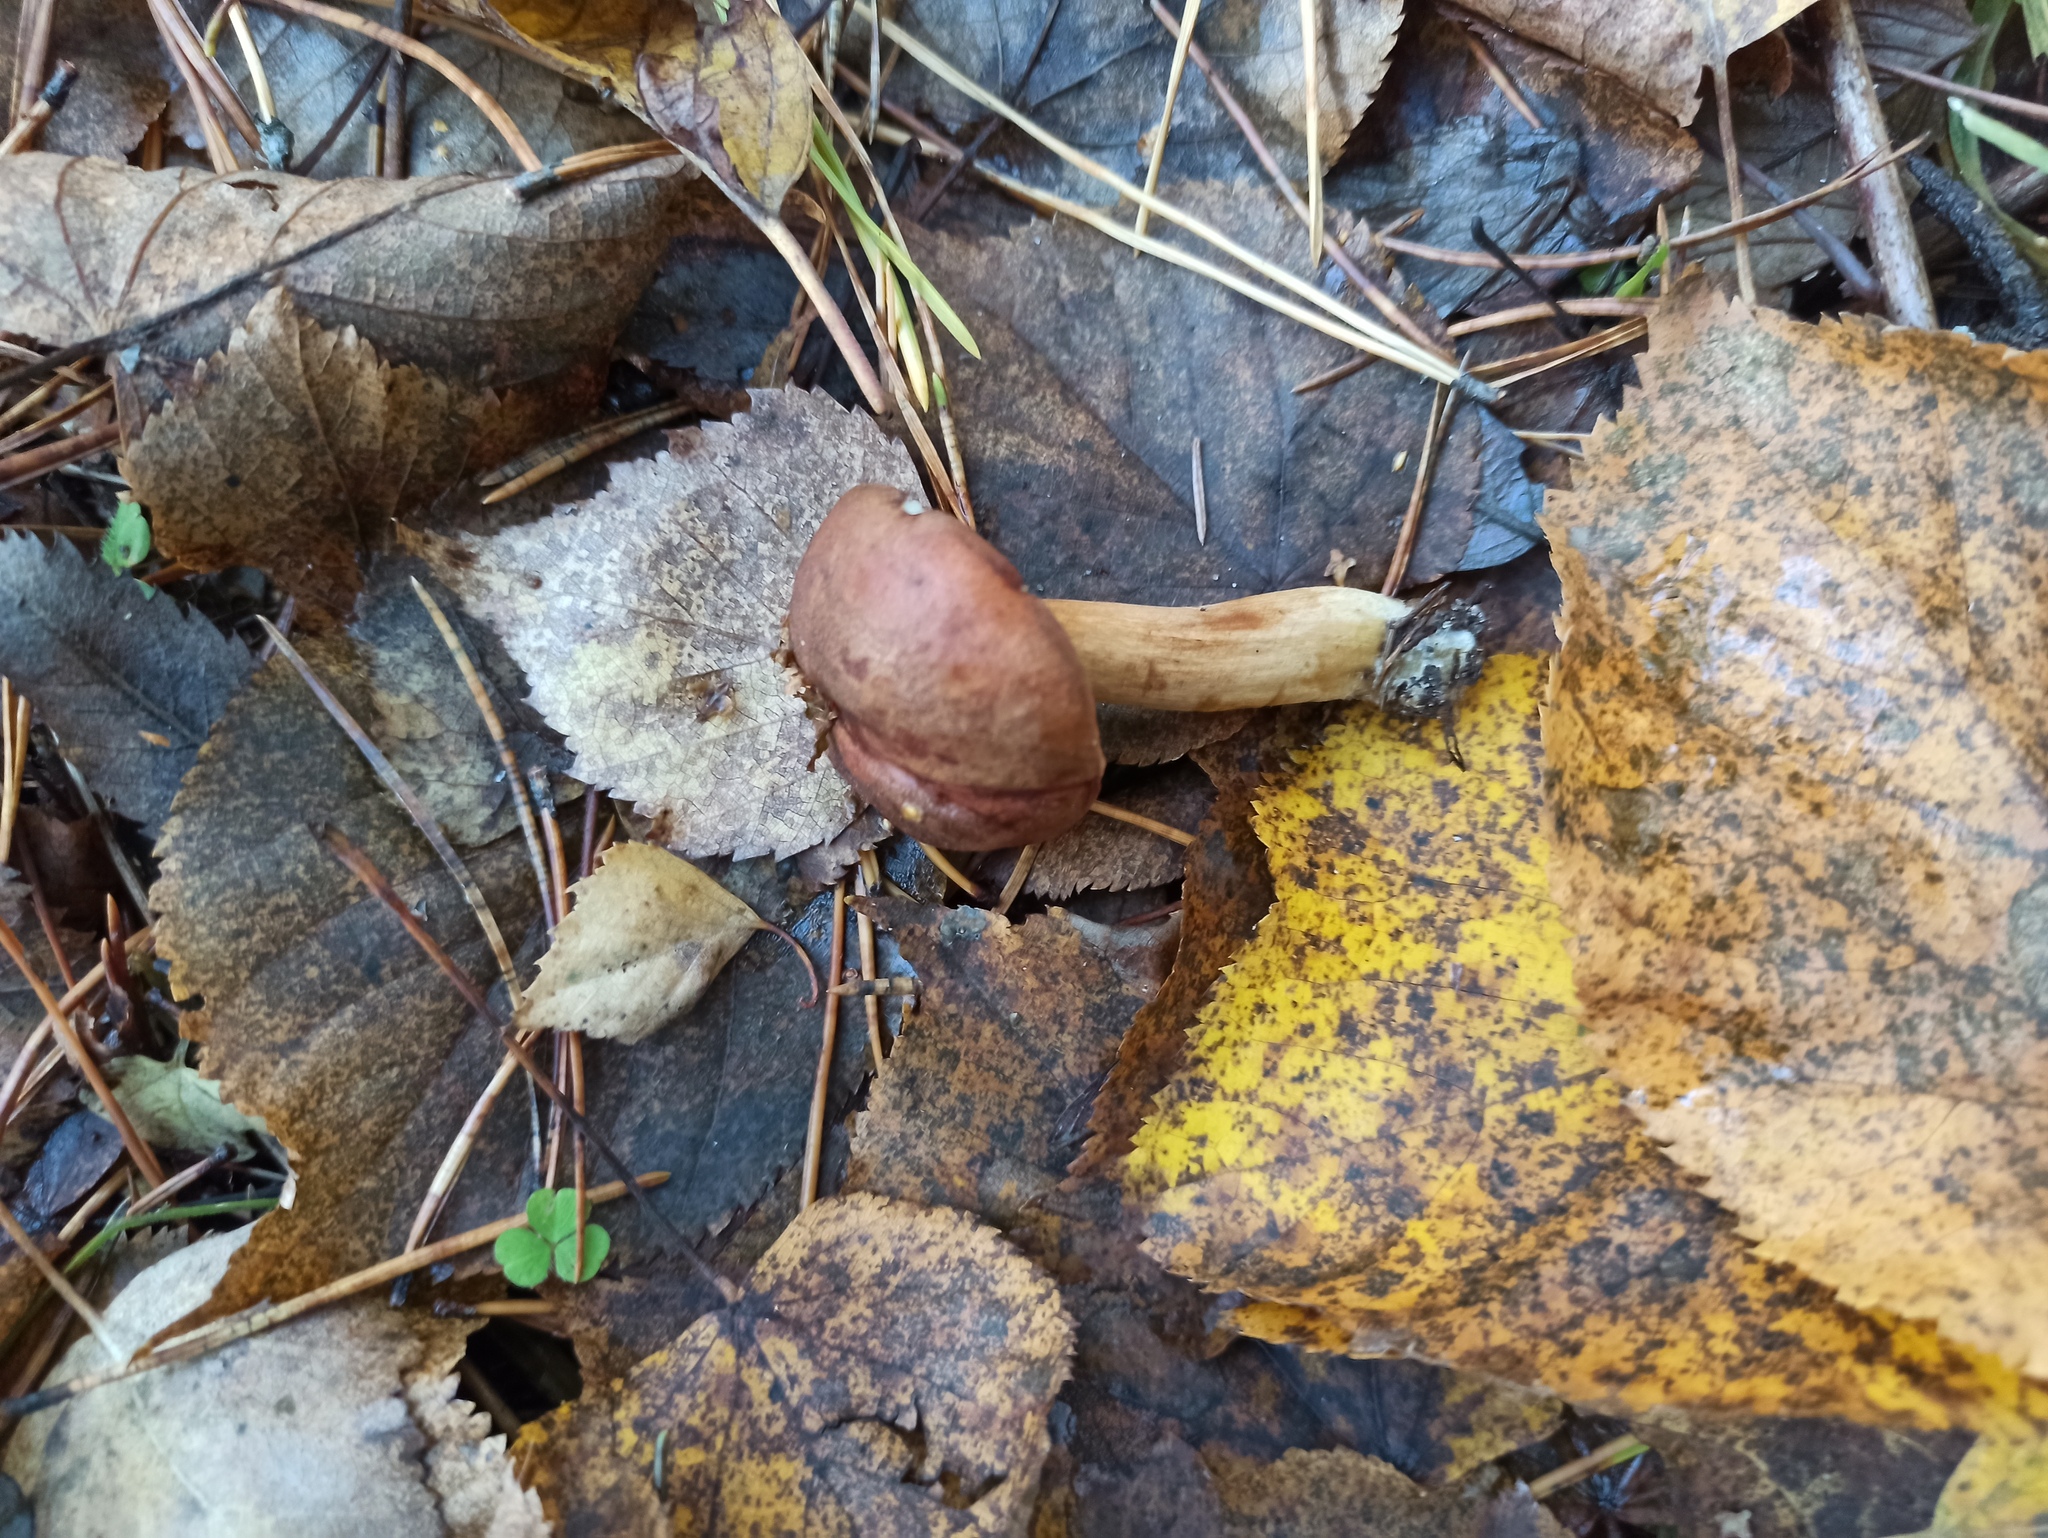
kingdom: Fungi
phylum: Basidiomycota
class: Agaricomycetes
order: Boletales
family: Boletaceae
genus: Imleria
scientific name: Imleria badia
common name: Bay bolete
